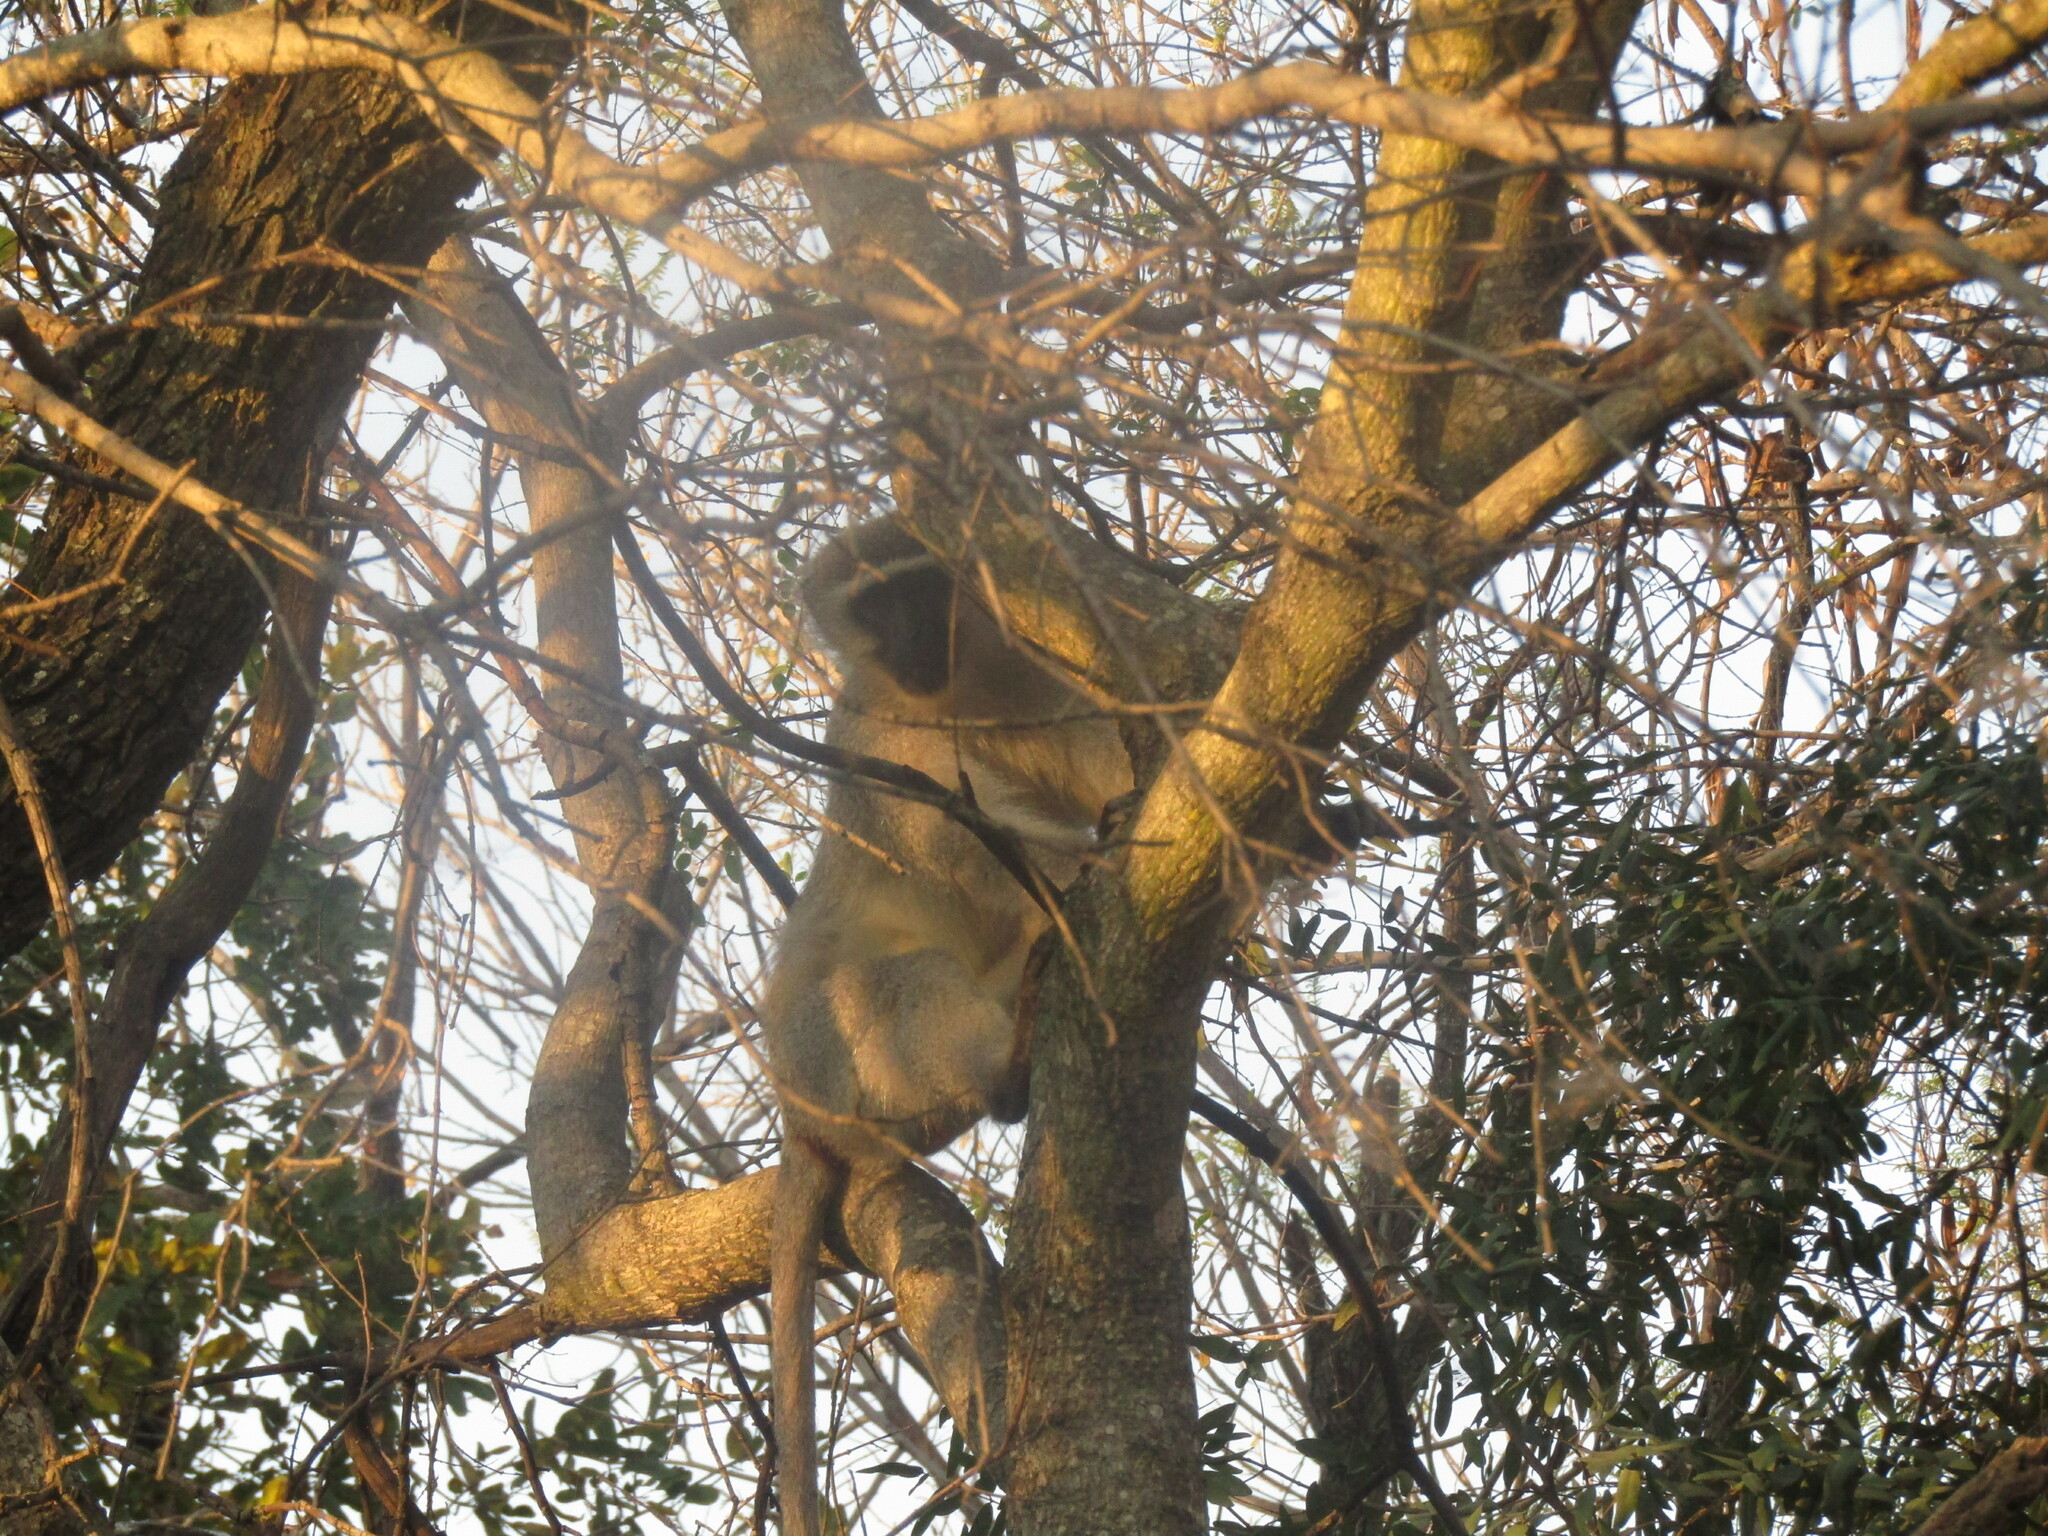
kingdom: Animalia
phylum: Chordata
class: Mammalia
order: Primates
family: Cercopithecidae
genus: Chlorocebus
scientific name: Chlorocebus pygerythrus
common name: Vervet monkey
